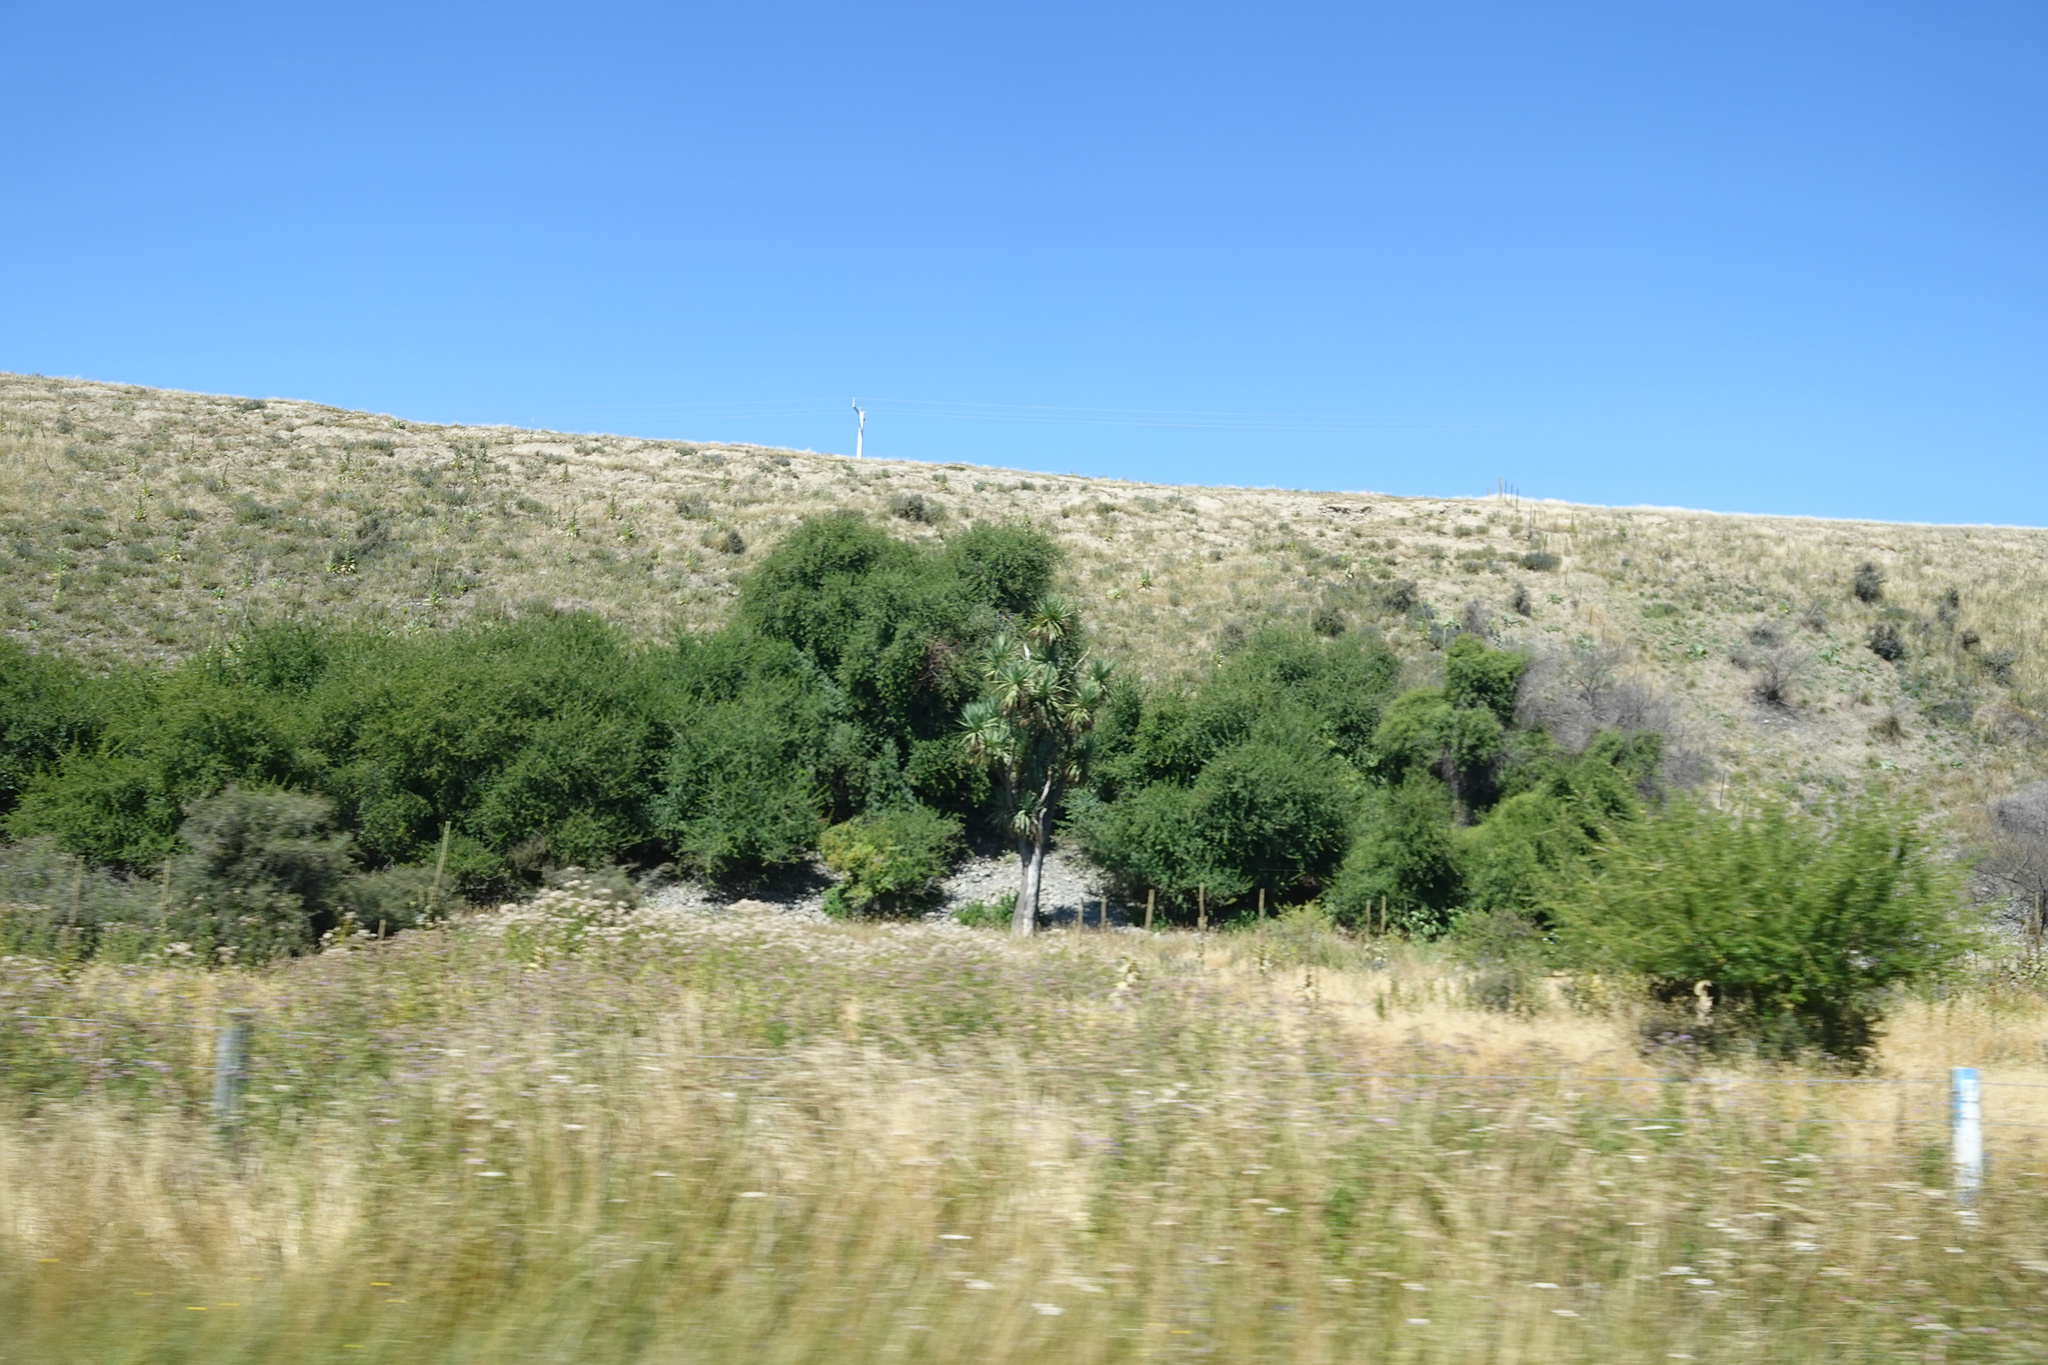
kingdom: Plantae
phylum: Tracheophyta
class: Liliopsida
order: Asparagales
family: Asparagaceae
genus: Cordyline
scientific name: Cordyline australis
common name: Cabbage-palm
